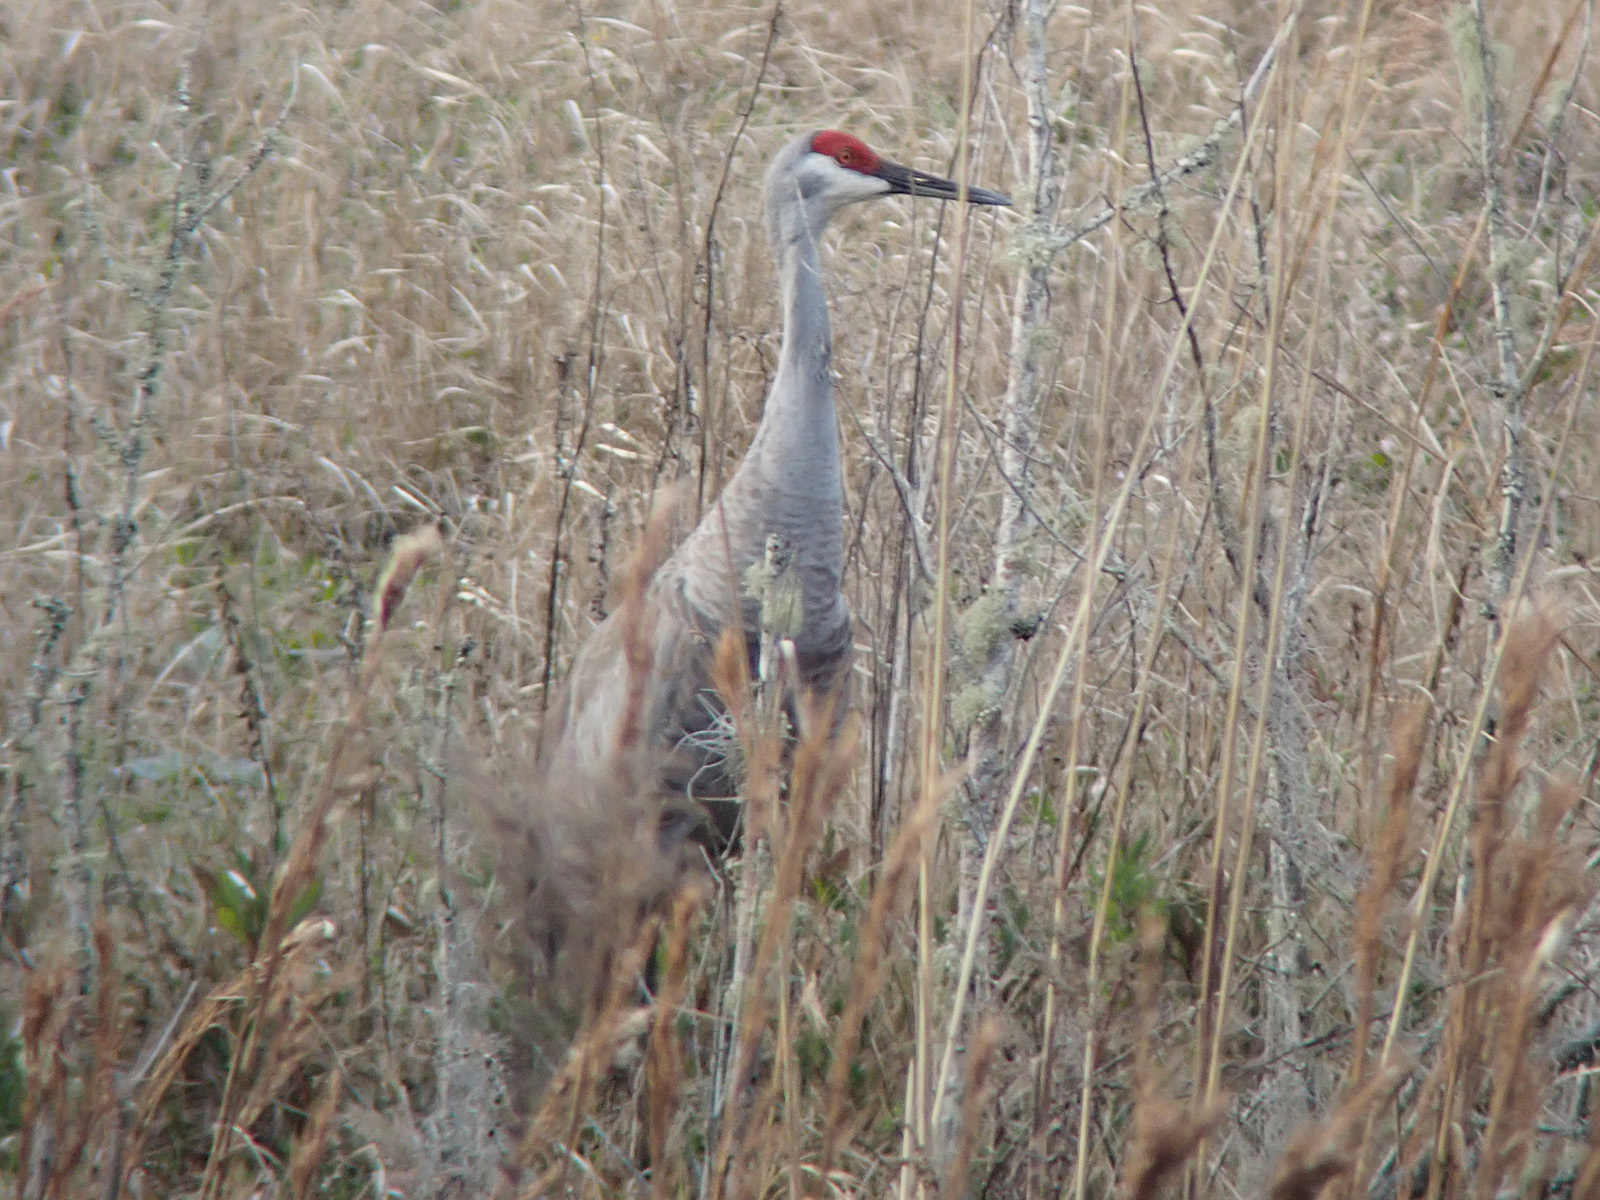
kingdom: Animalia
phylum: Chordata
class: Aves
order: Gruiformes
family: Gruidae
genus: Grus
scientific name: Grus canadensis
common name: Sandhill crane
